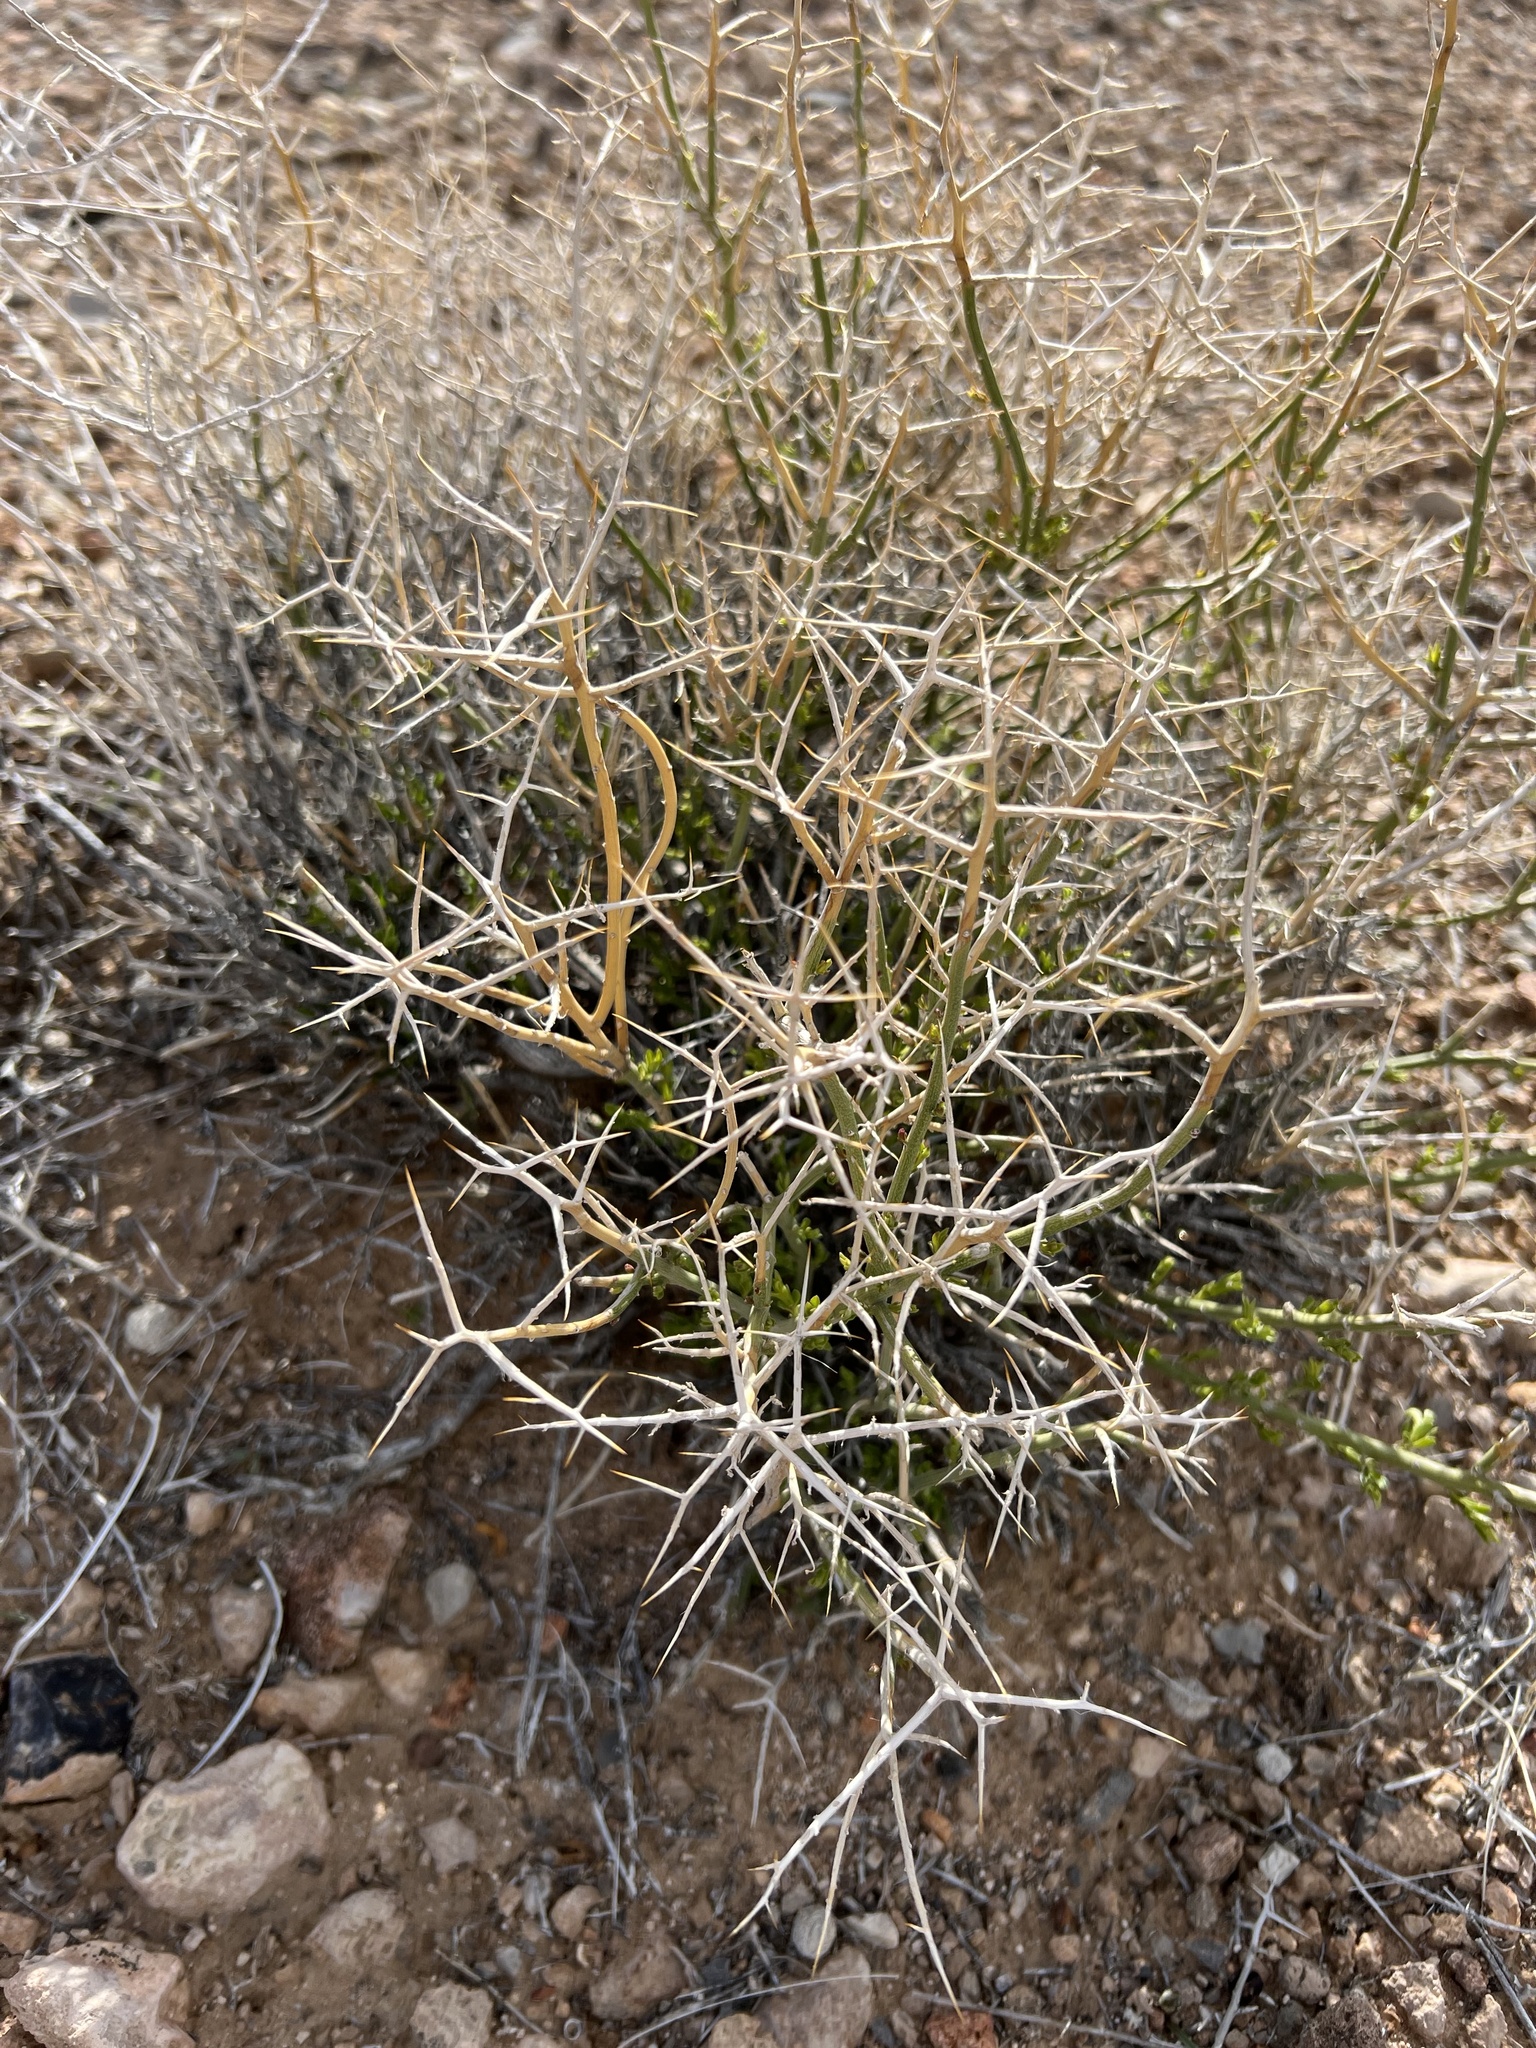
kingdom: Plantae
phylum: Tracheophyta
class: Magnoliopsida
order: Lamiales
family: Oleaceae
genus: Menodora
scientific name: Menodora spinescens
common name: Spiny menodora
